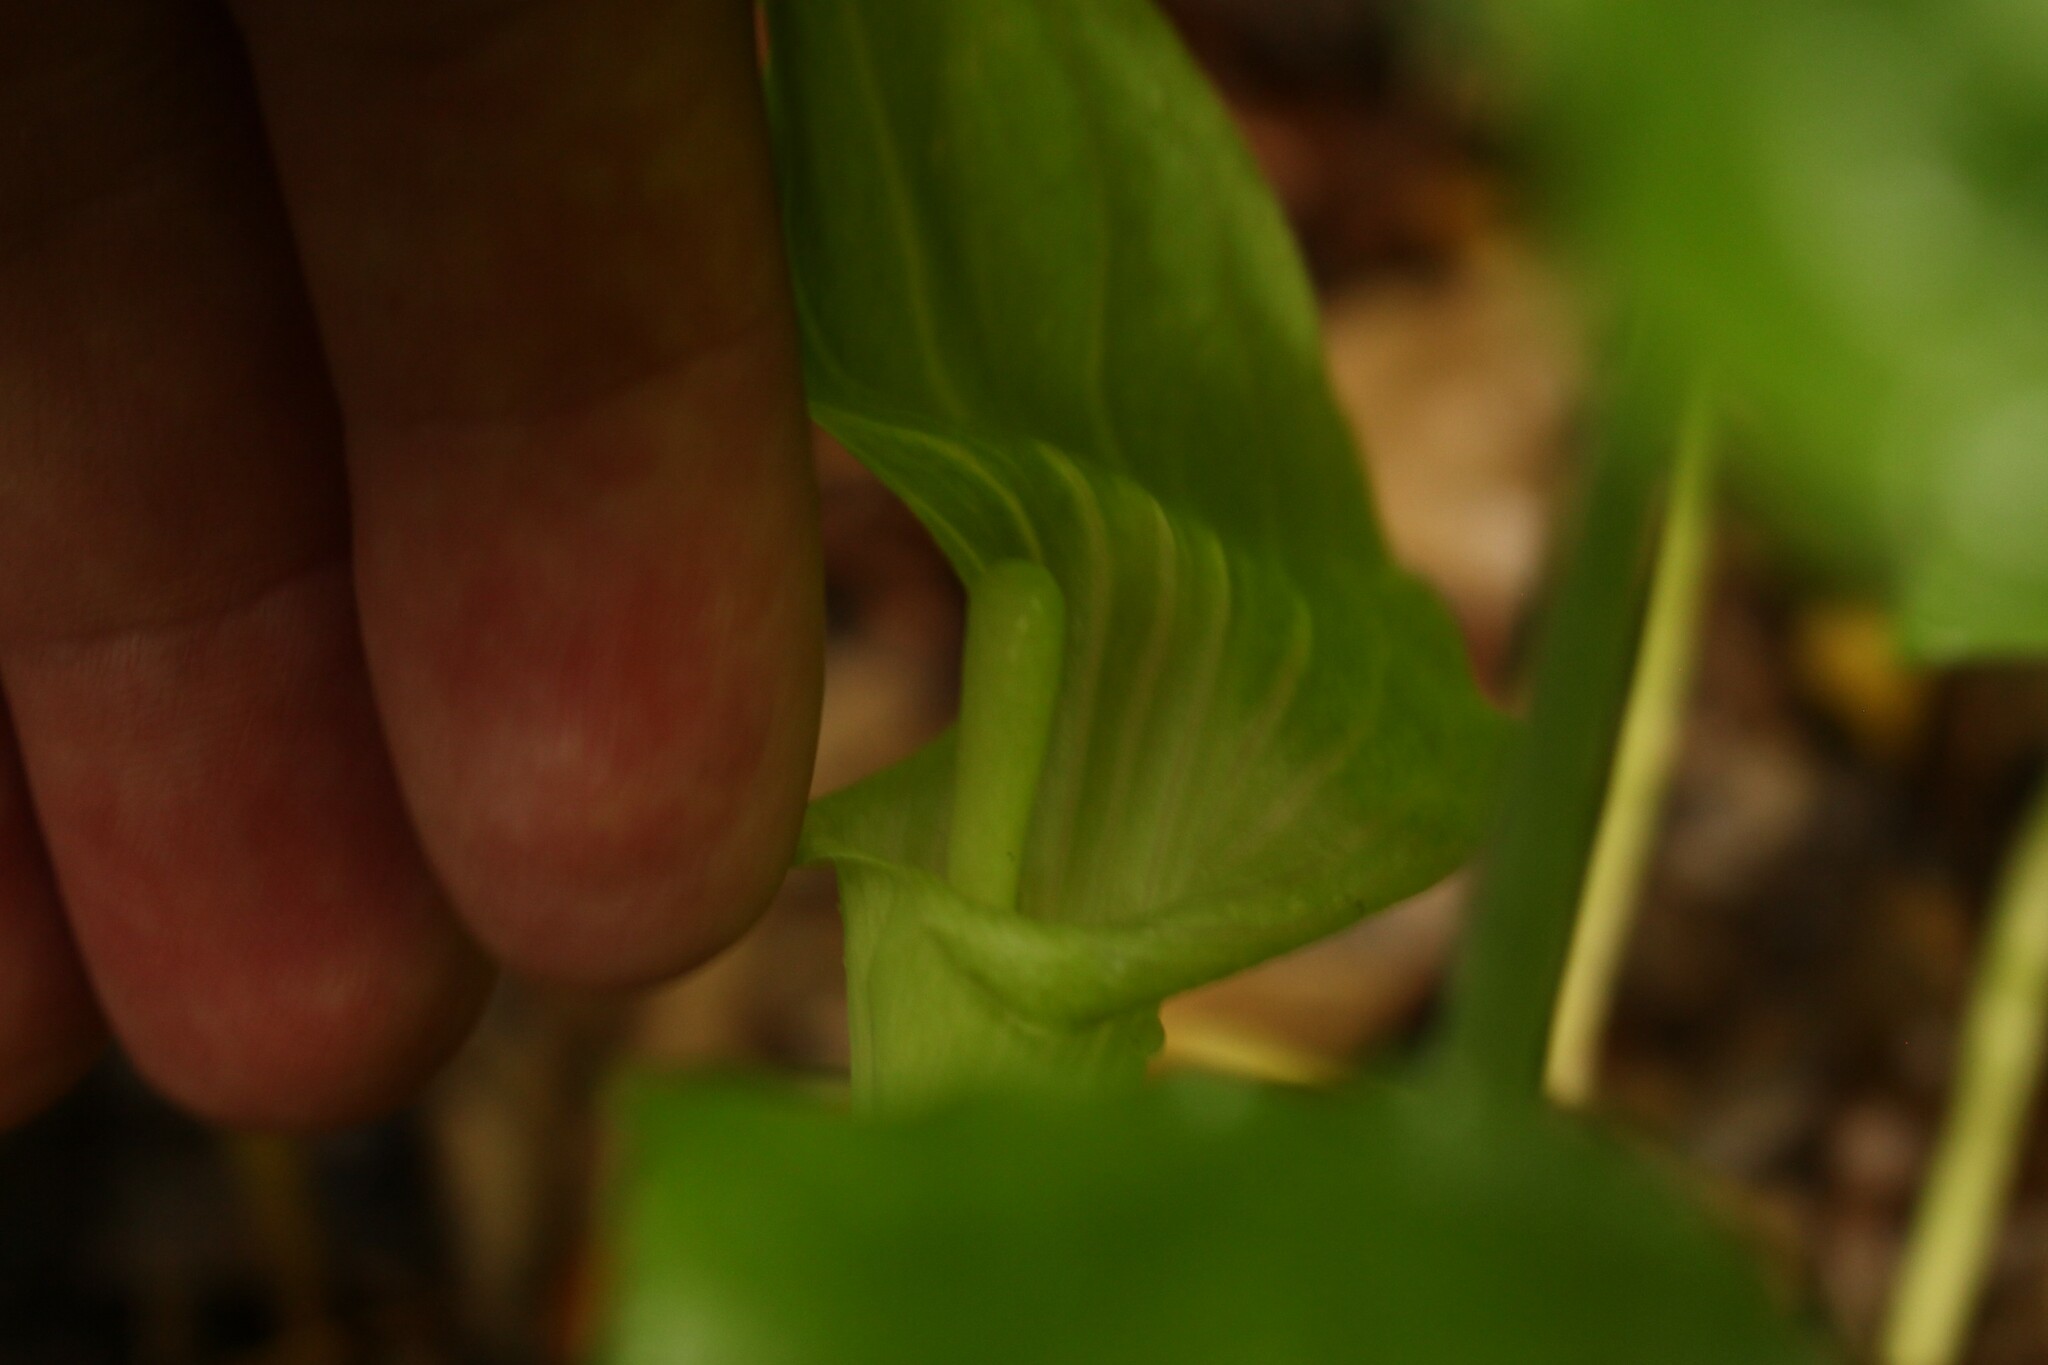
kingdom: Plantae
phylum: Tracheophyta
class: Liliopsida
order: Alismatales
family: Araceae
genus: Arisaema
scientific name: Arisaema triphyllum
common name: Jack-in-the-pulpit
